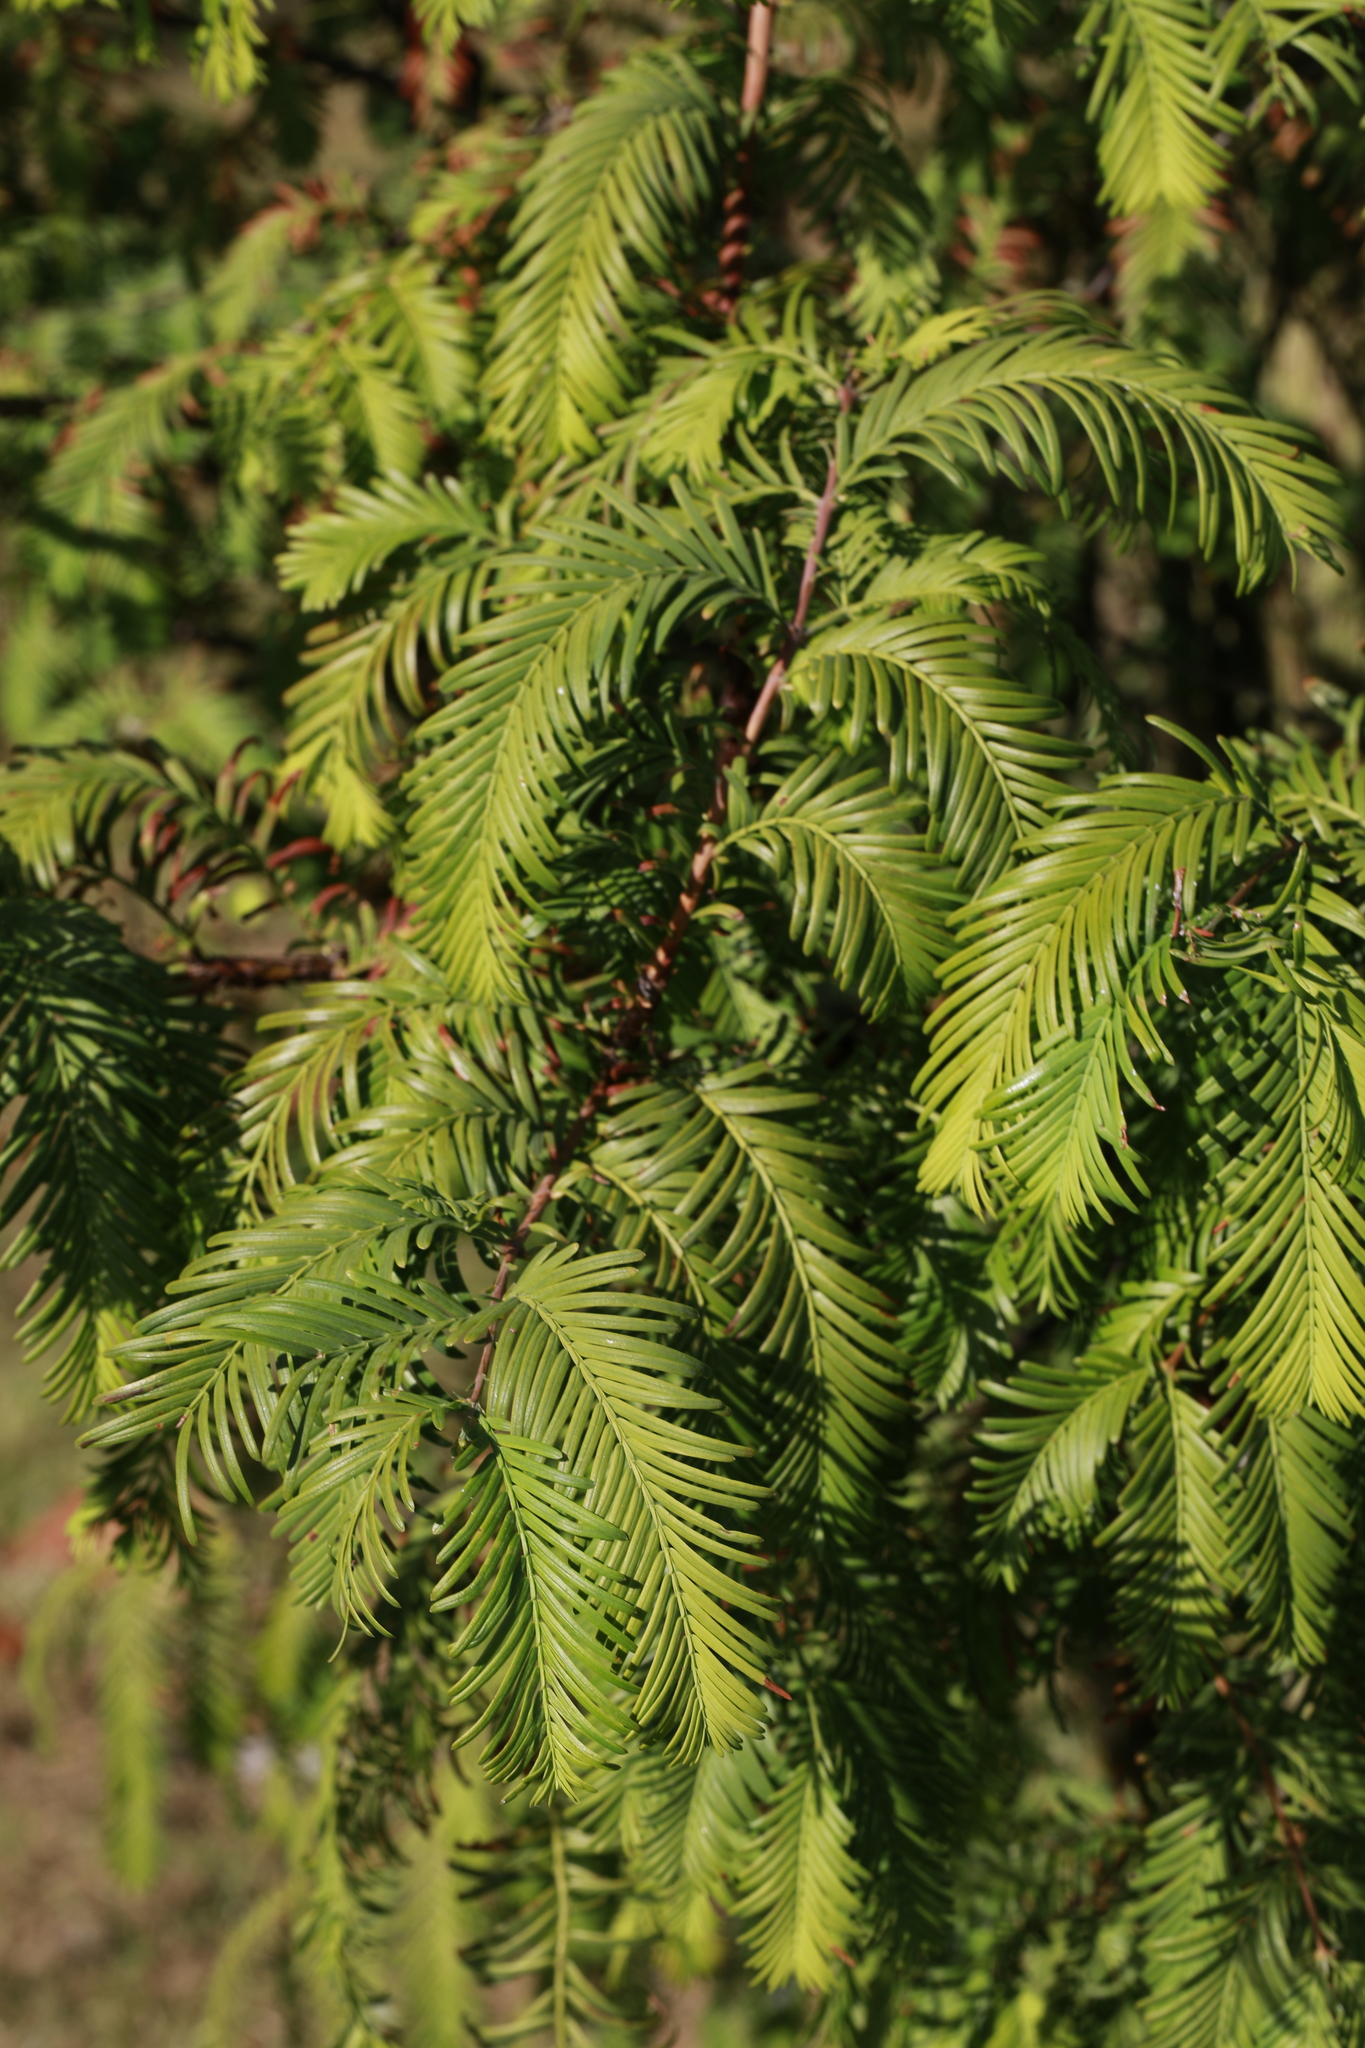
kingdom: Plantae
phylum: Tracheophyta
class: Pinopsida
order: Pinales
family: Taxaceae
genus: Taxus
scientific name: Taxus baccata
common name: Yew
